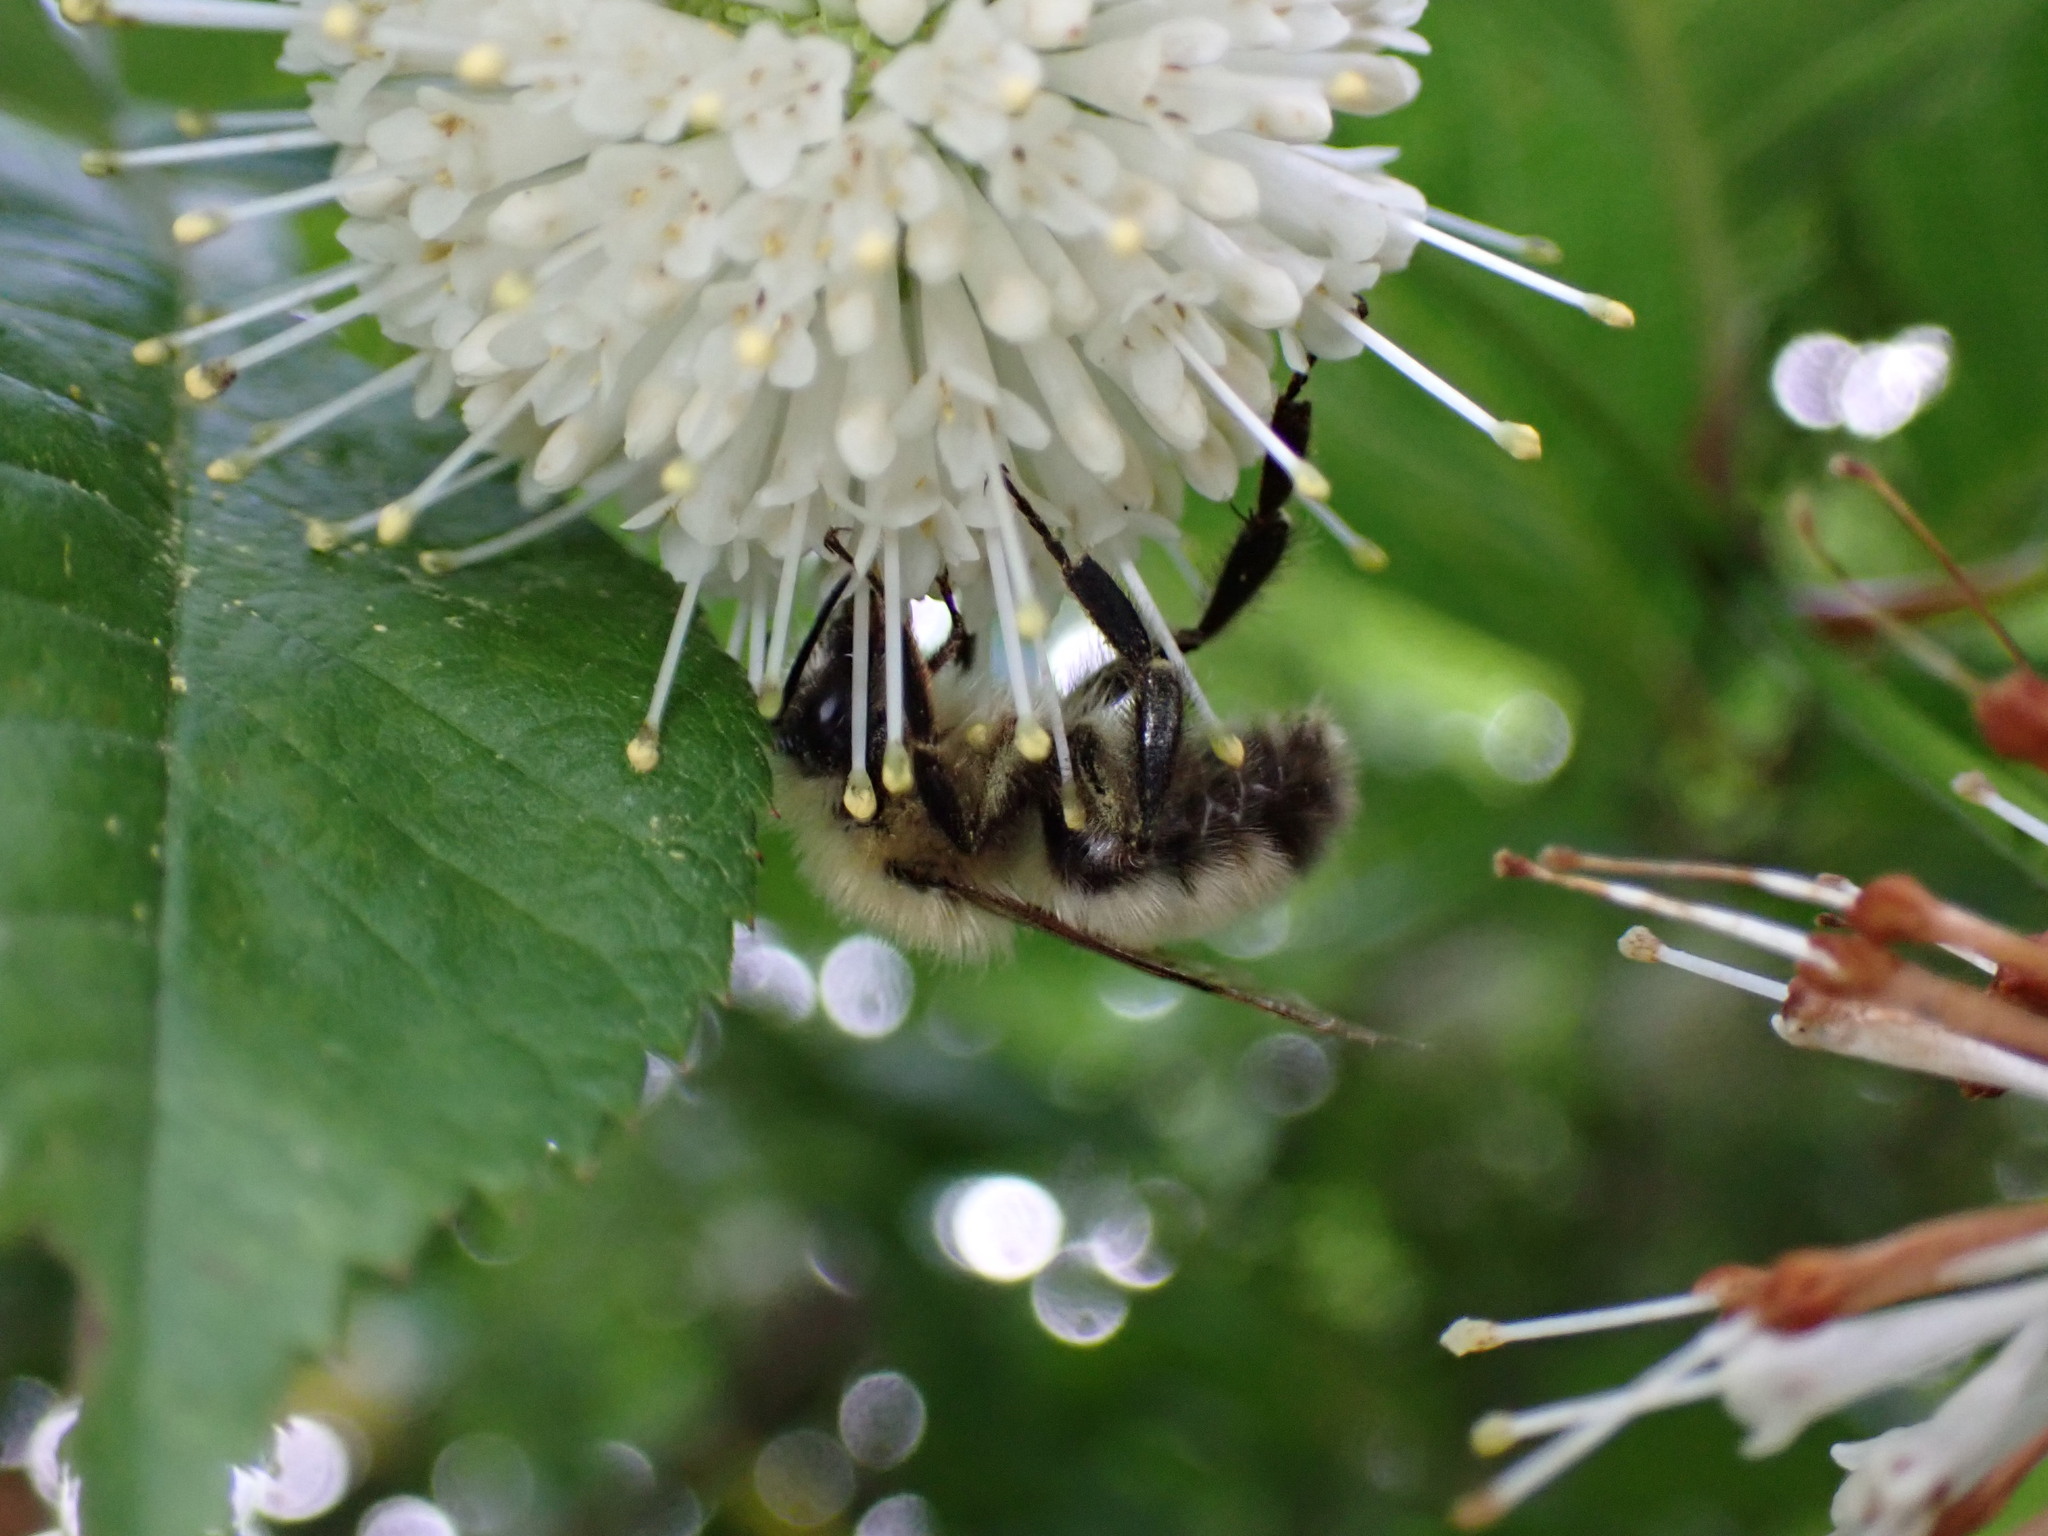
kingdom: Animalia
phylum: Arthropoda
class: Insecta
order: Hymenoptera
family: Apidae
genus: Bombus
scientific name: Bombus perplexus
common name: Confusing bumble bee
